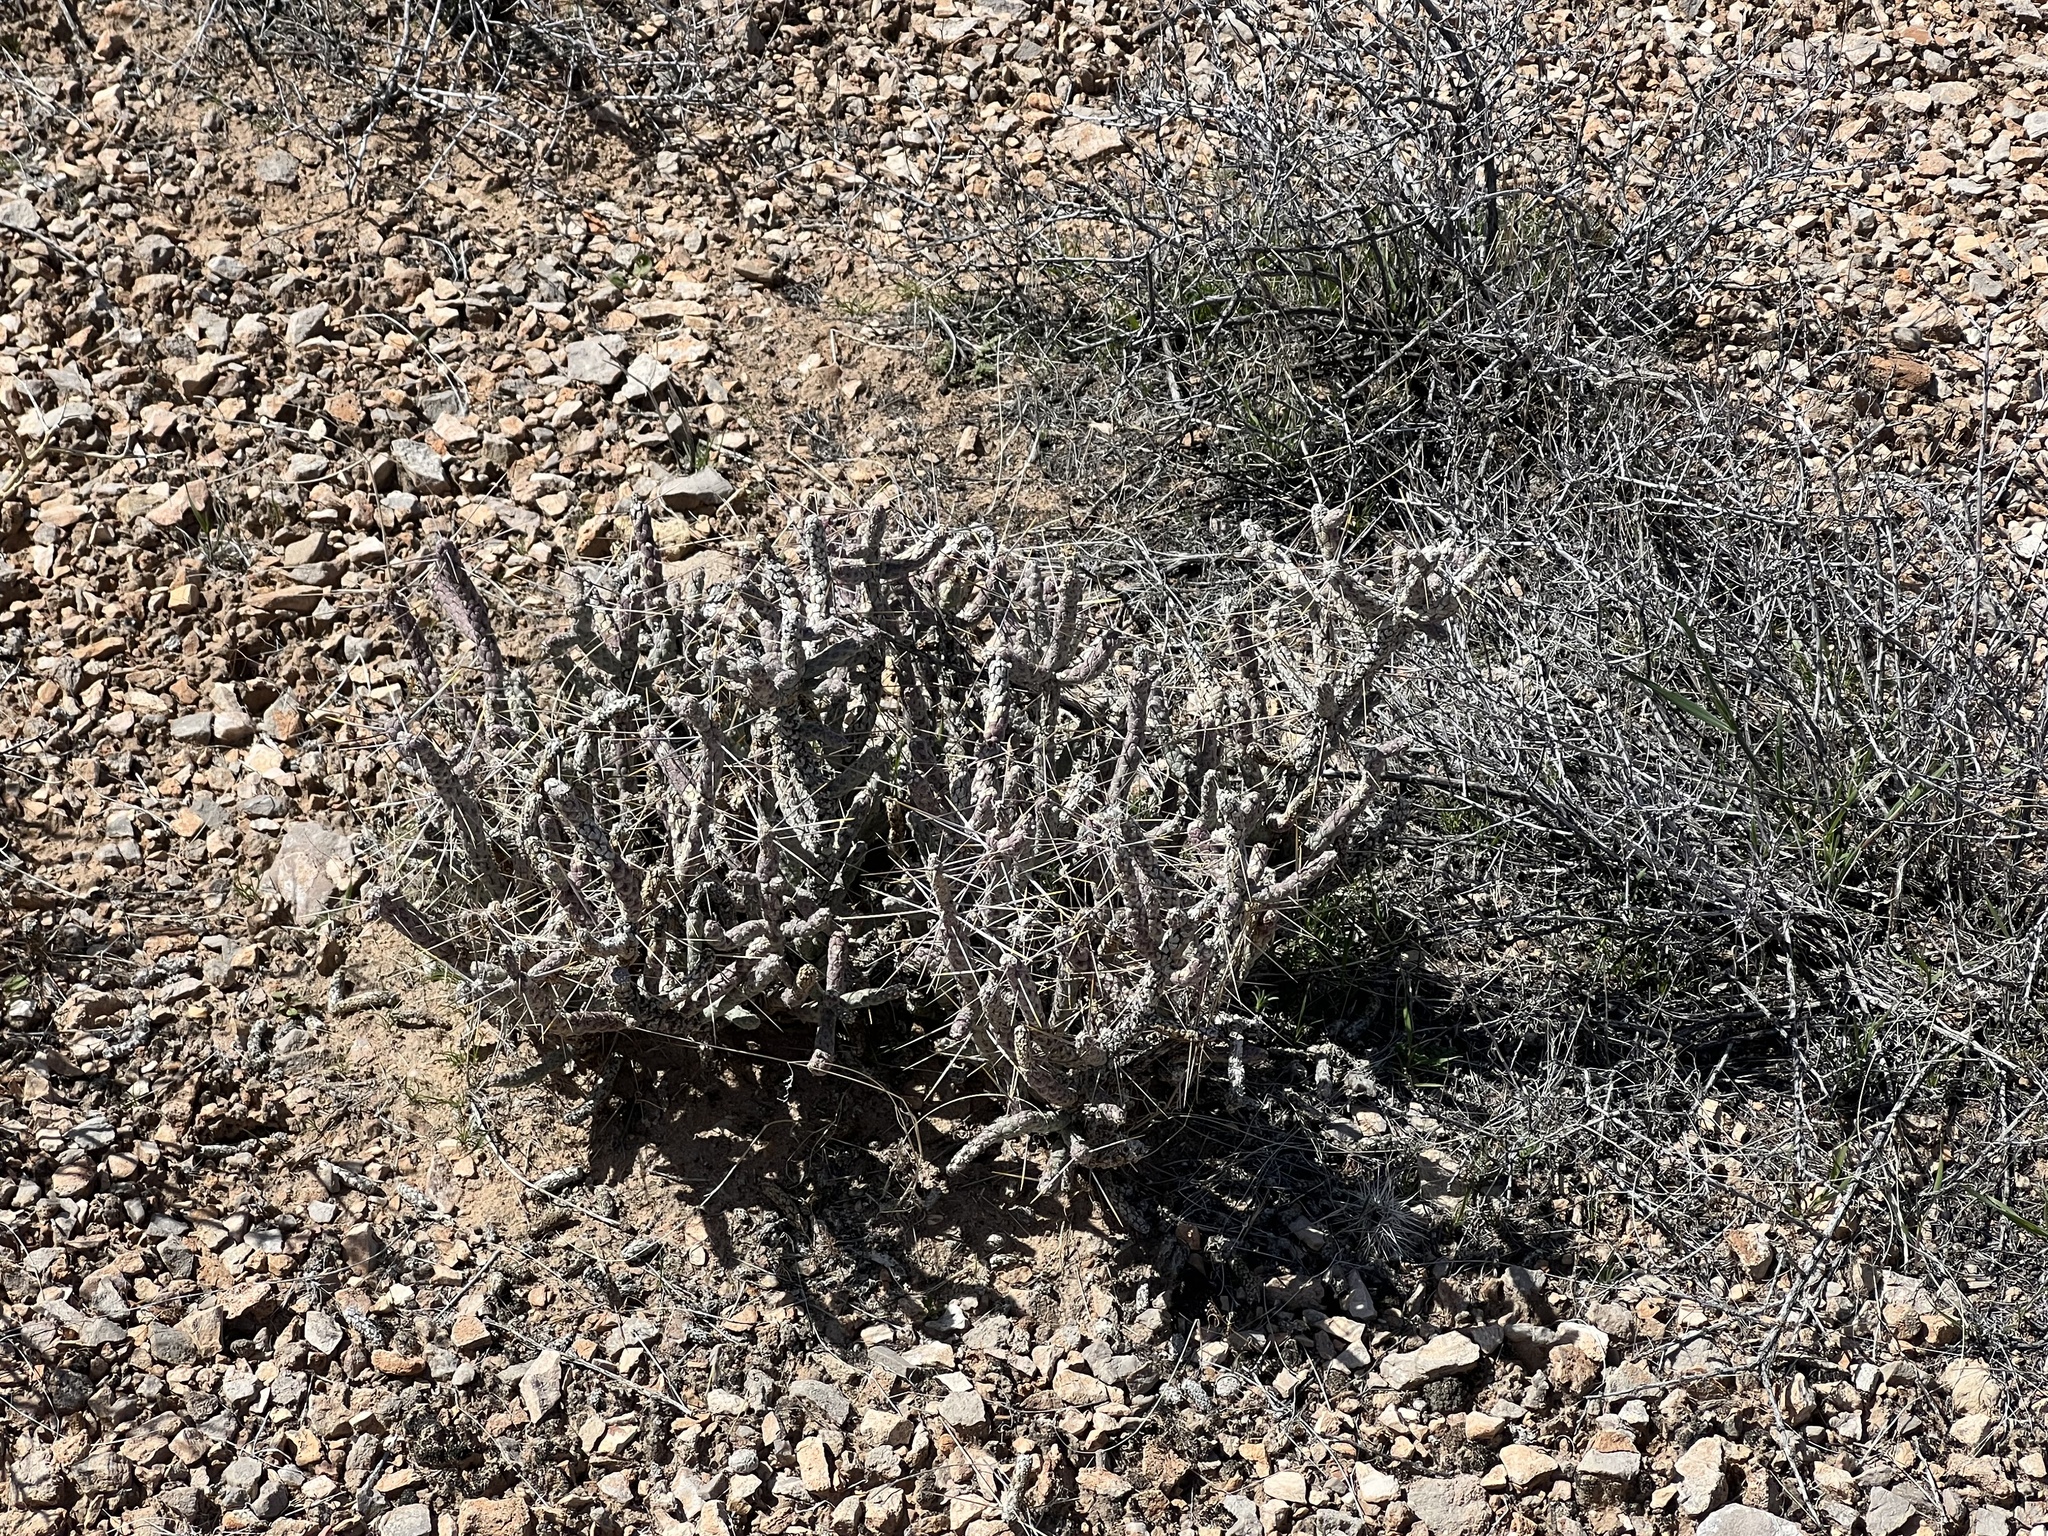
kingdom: Plantae
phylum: Tracheophyta
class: Magnoliopsida
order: Caryophyllales
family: Cactaceae
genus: Cylindropuntia
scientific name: Cylindropuntia ramosissima
